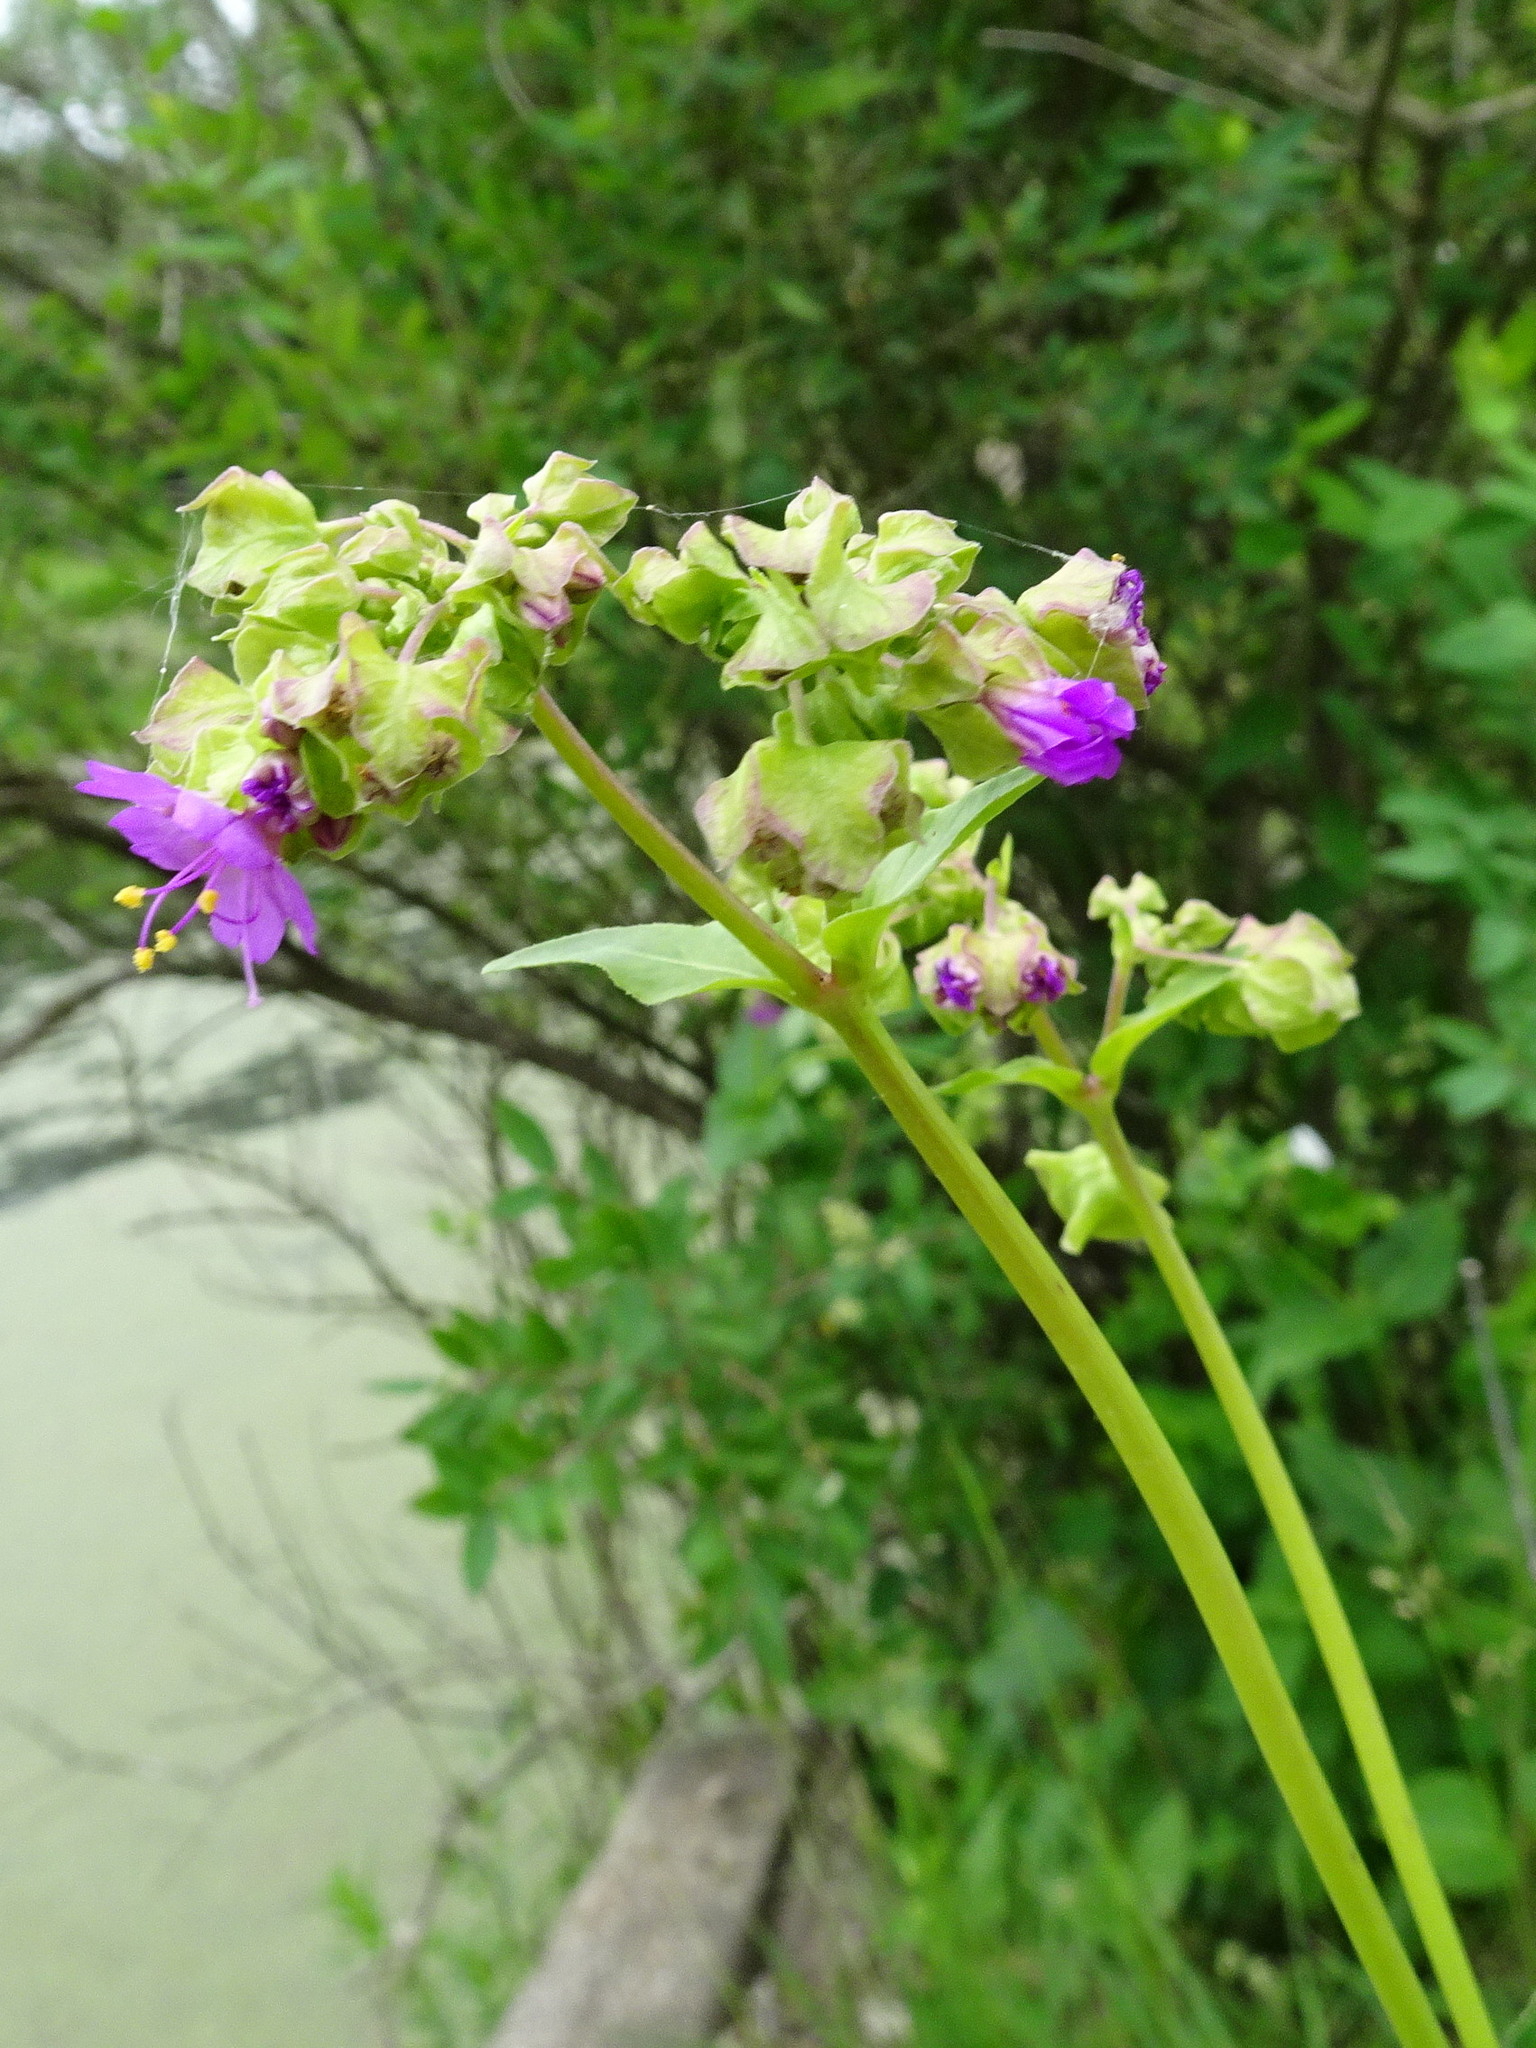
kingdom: Plantae
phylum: Tracheophyta
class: Magnoliopsida
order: Caryophyllales
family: Nyctaginaceae
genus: Mirabilis
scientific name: Mirabilis nyctaginea
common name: Umbrella wort
